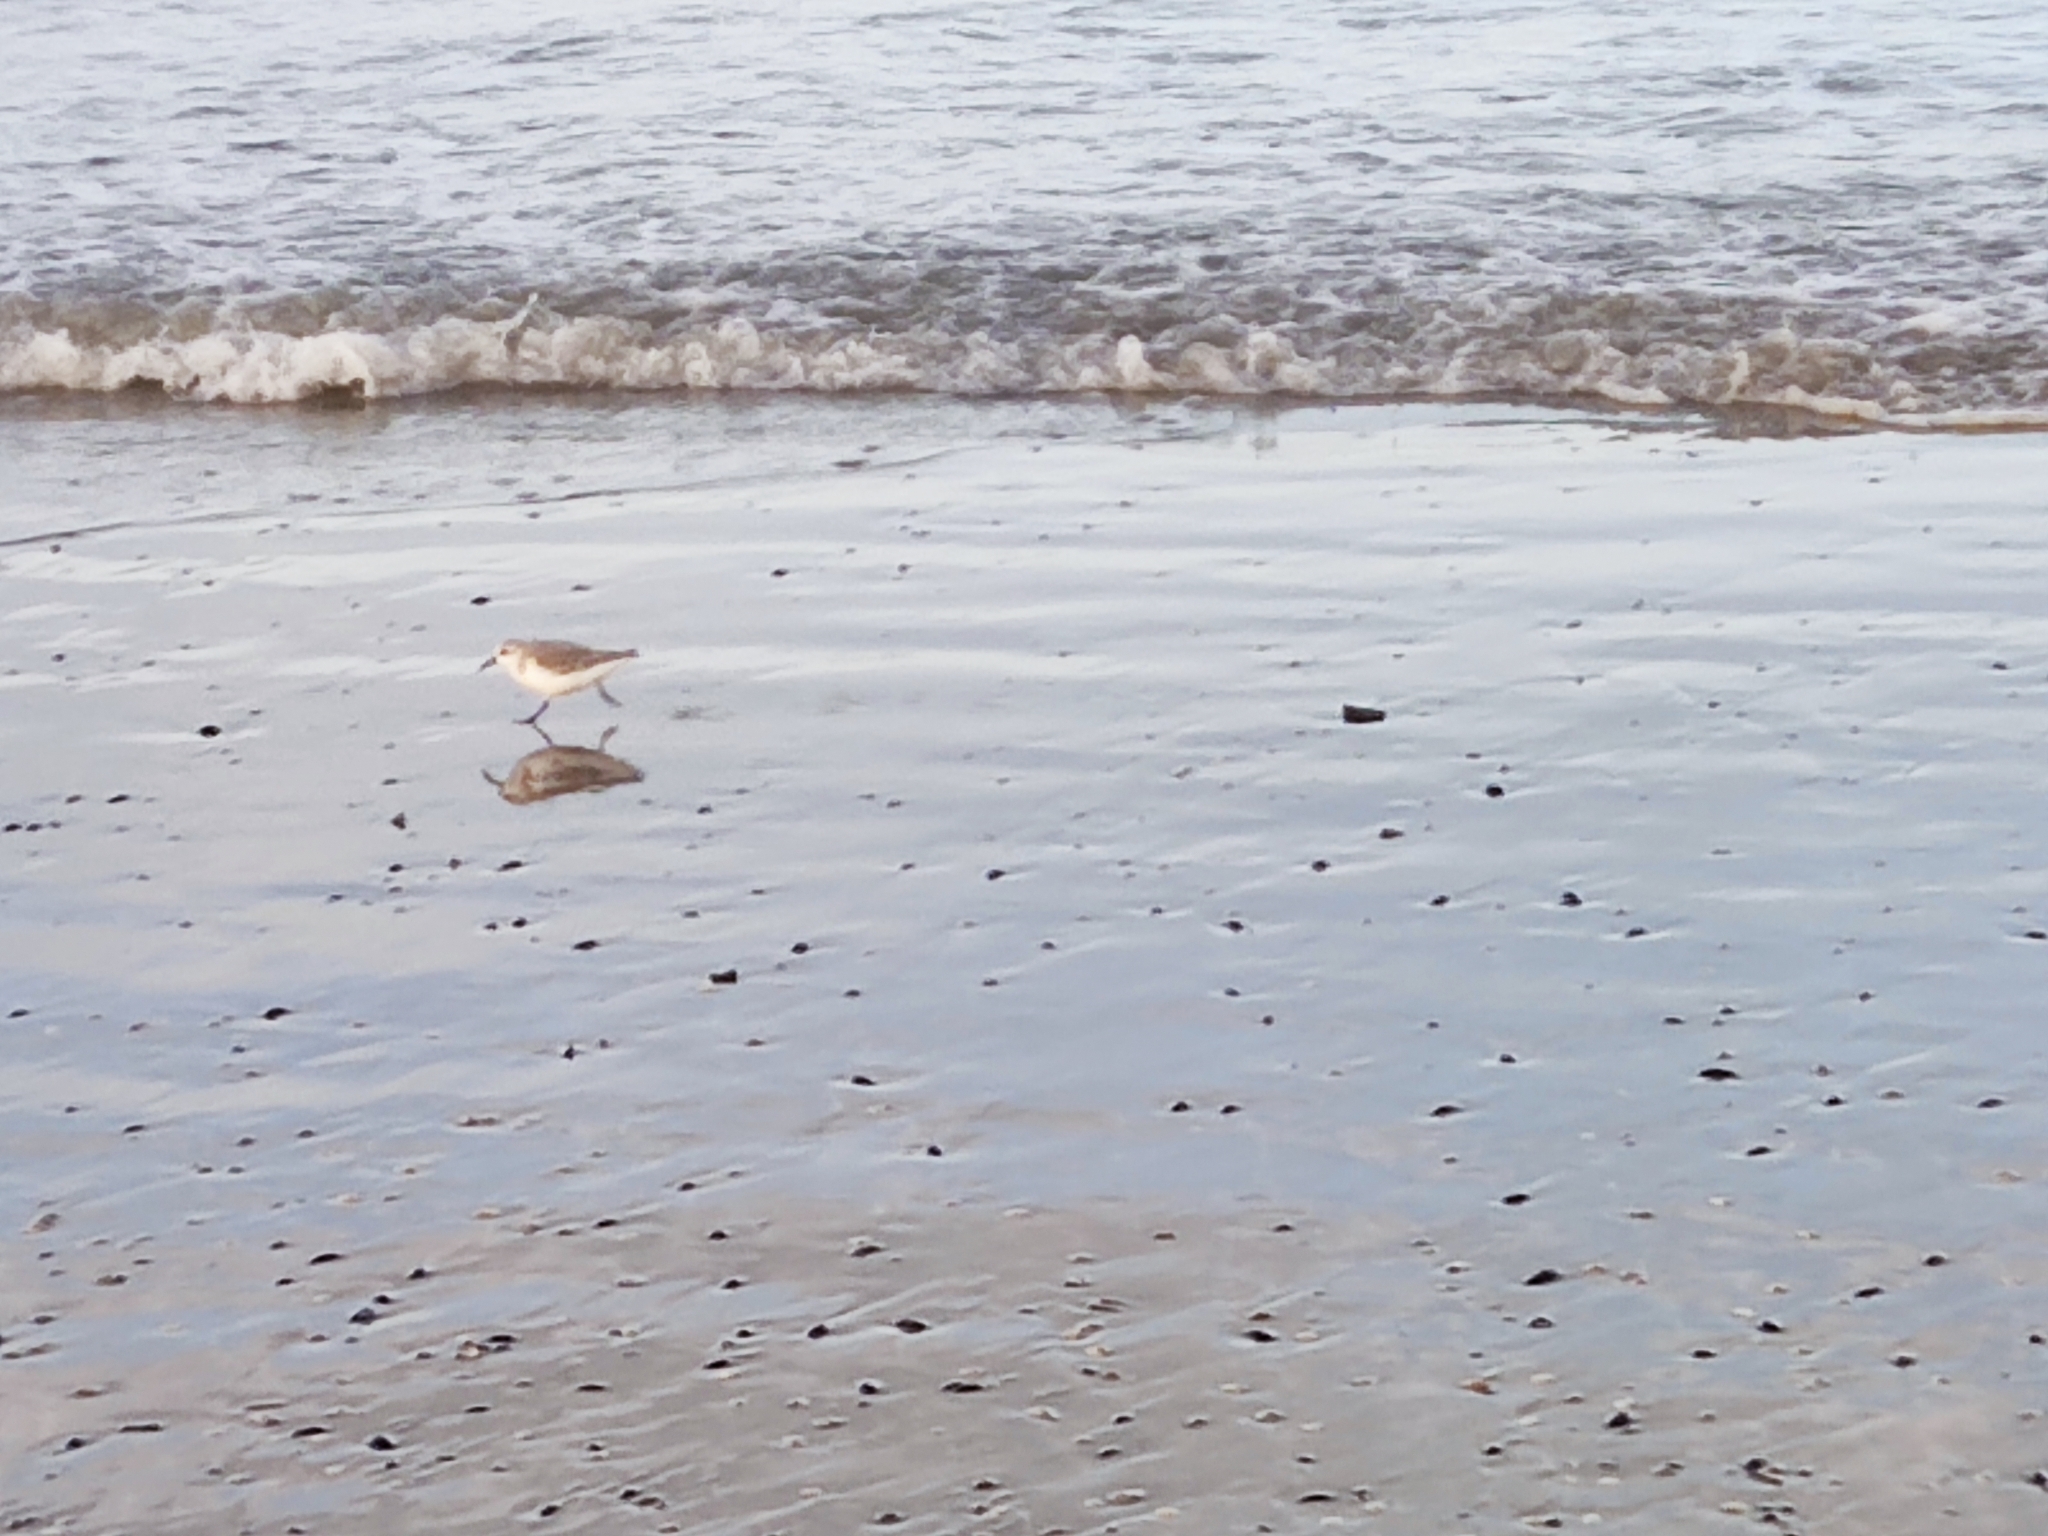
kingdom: Animalia
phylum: Chordata
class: Aves
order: Charadriiformes
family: Scolopacidae
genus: Calidris
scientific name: Calidris alba
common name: Sanderling
